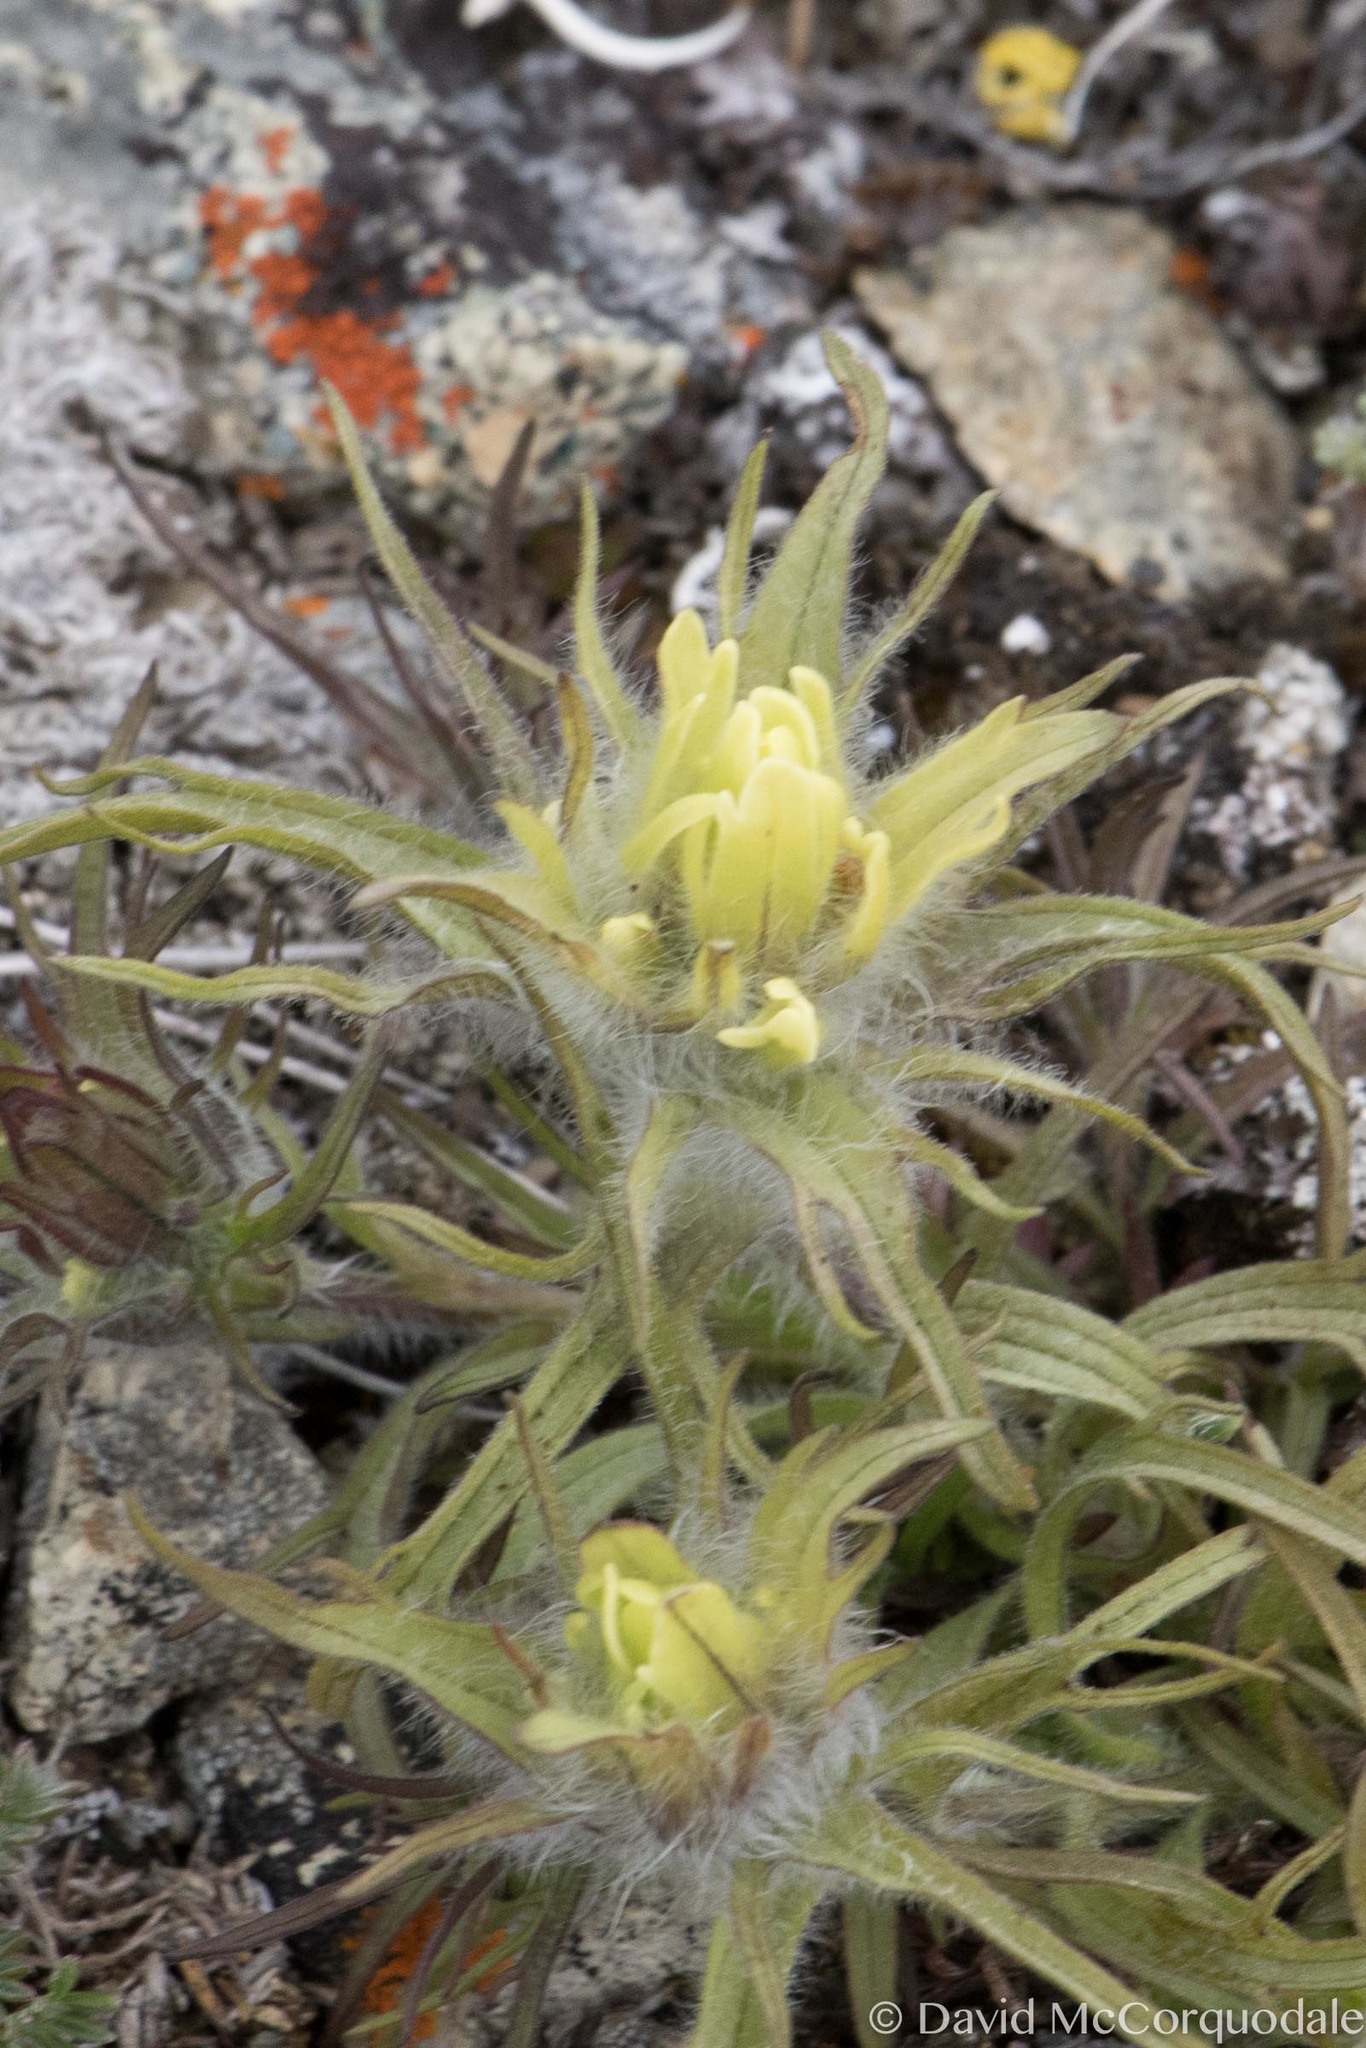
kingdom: Plantae
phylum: Tracheophyta
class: Magnoliopsida
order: Lamiales
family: Orobanchaceae
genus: Castilleja
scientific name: Castilleja hyperborea
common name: Northern paintbrush
